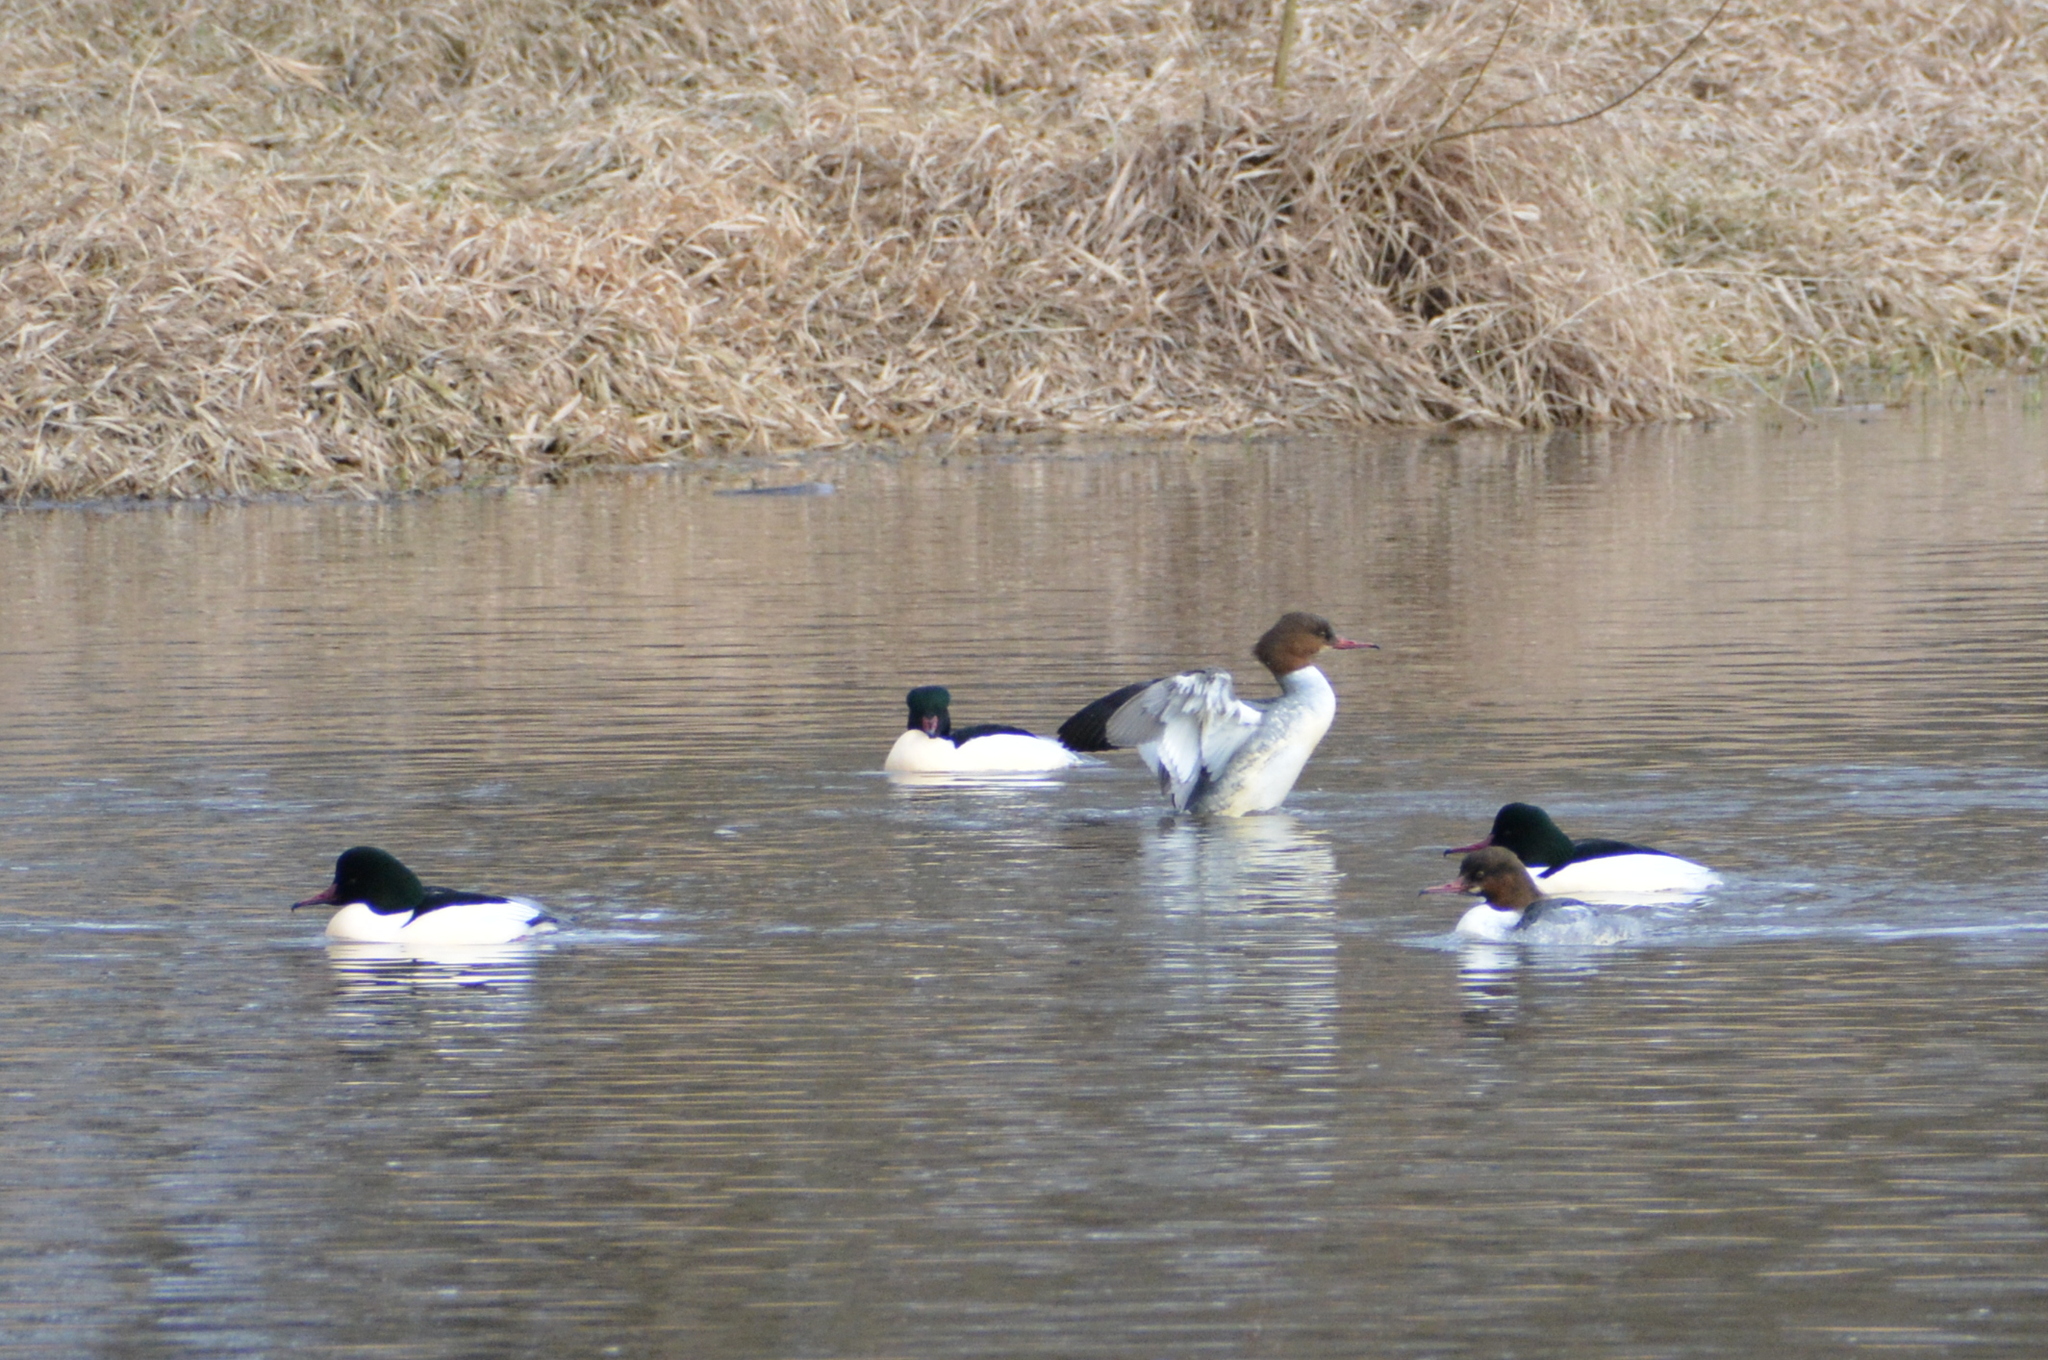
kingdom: Animalia
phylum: Chordata
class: Aves
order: Anseriformes
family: Anatidae
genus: Mergus
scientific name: Mergus merganser
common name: Common merganser
